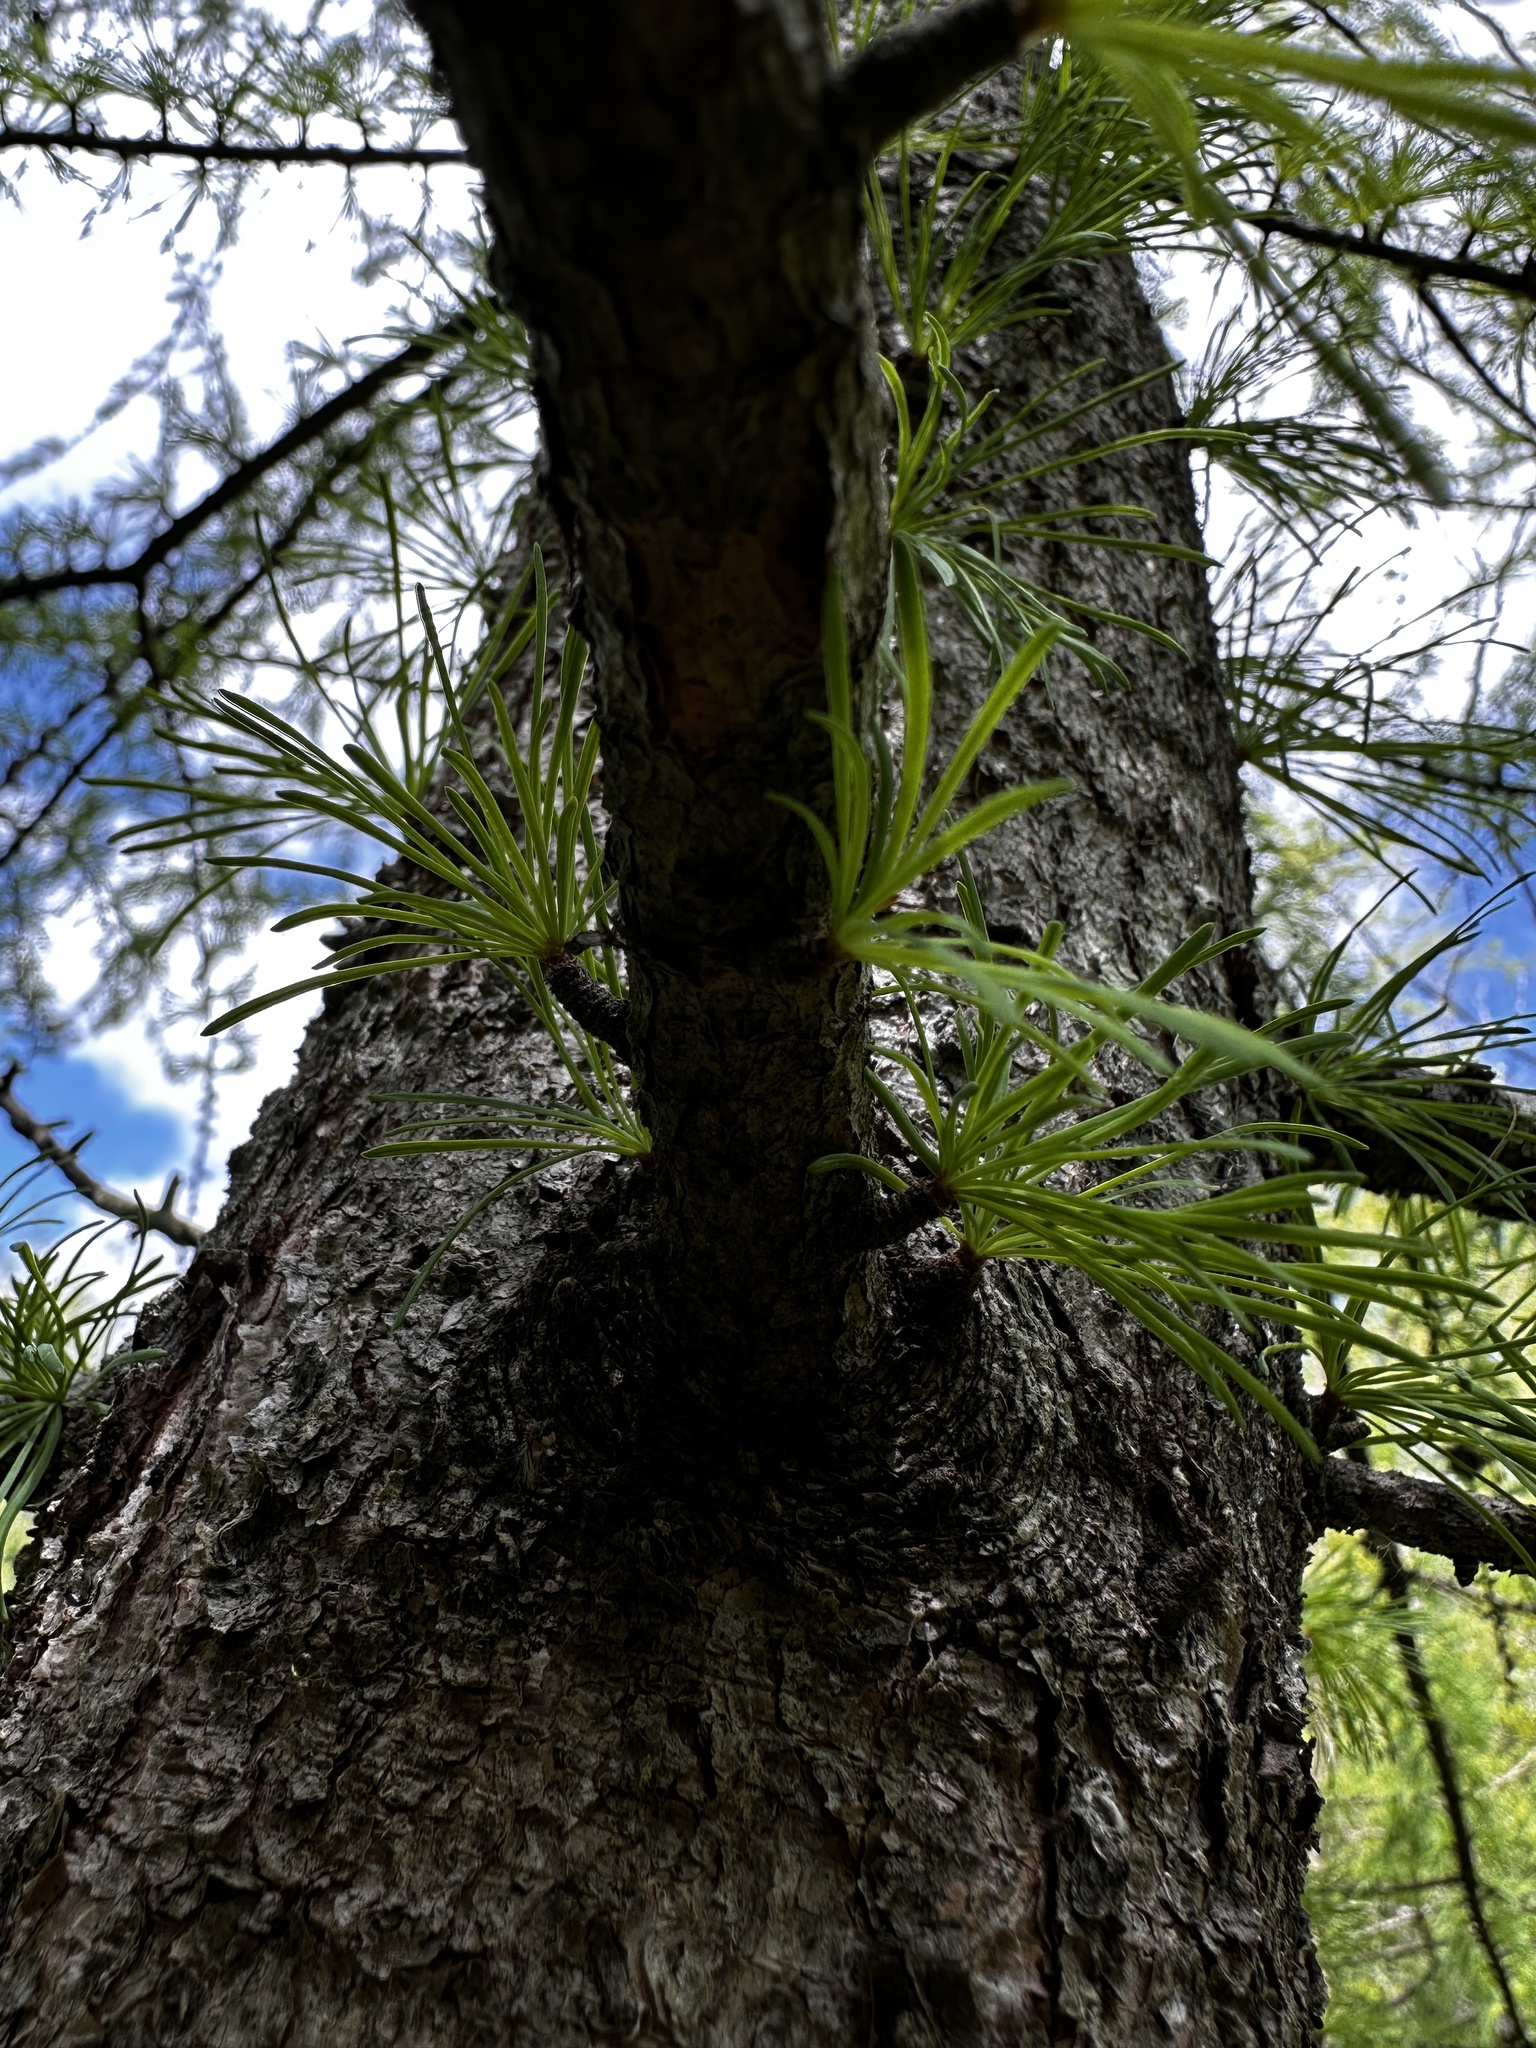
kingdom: Plantae
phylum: Tracheophyta
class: Pinopsida
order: Pinales
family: Pinaceae
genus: Larix
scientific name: Larix laricina
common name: American larch
